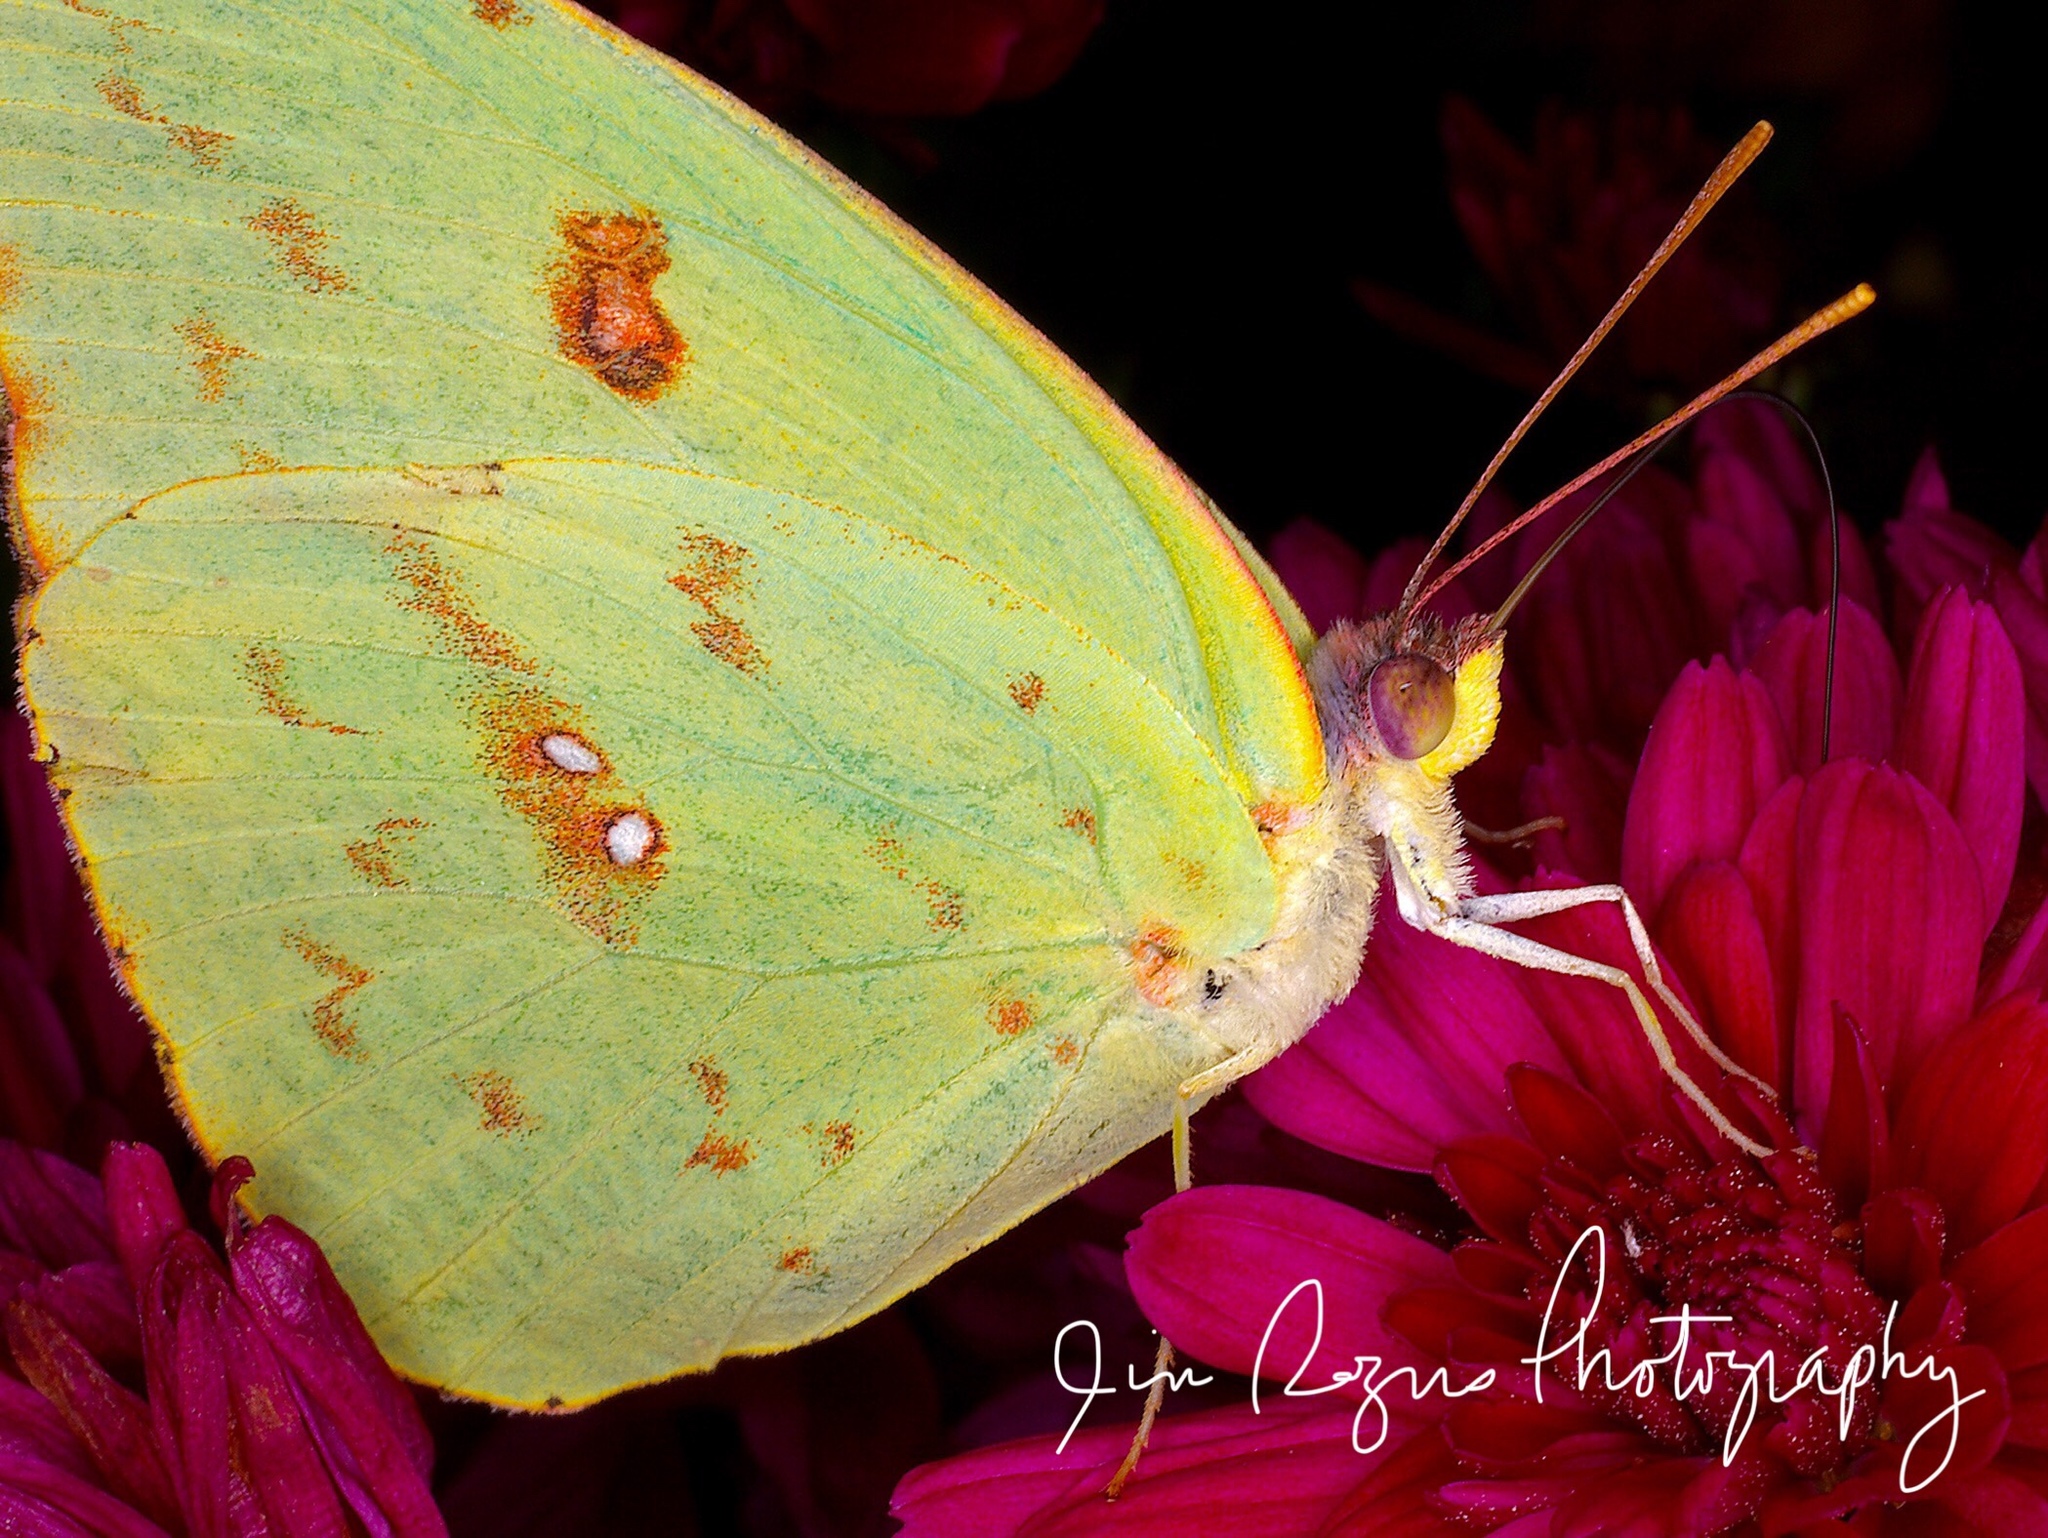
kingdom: Animalia
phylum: Arthropoda
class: Insecta
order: Lepidoptera
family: Pieridae
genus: Phoebis
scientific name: Phoebis sennae
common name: Cloudless sulphur
